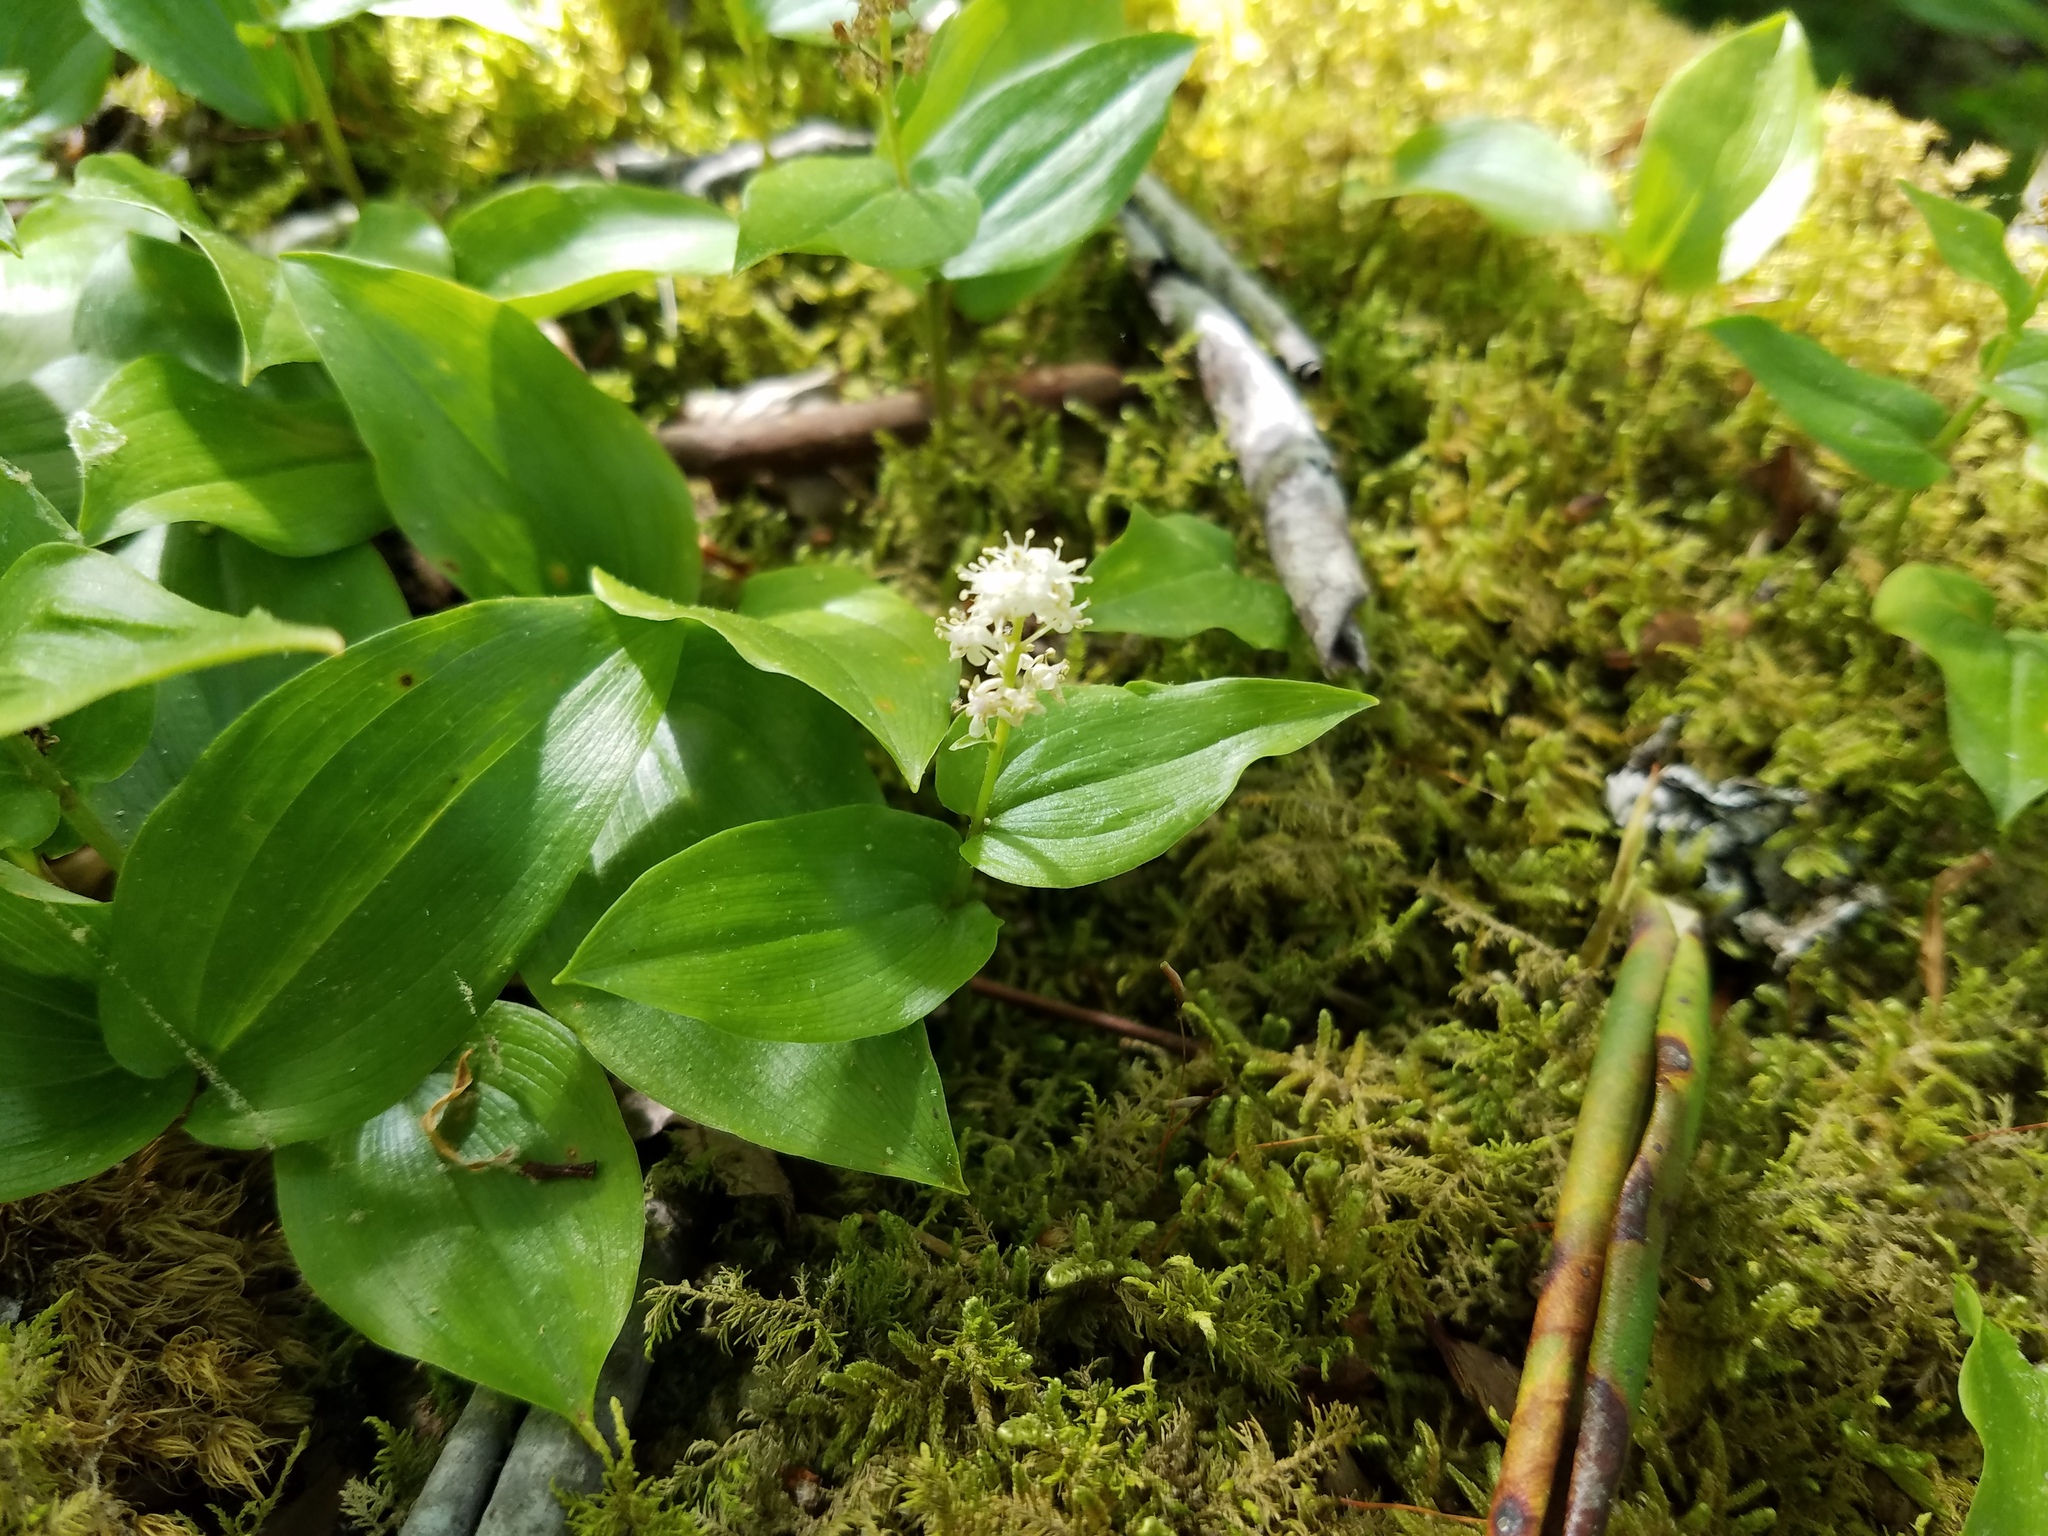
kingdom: Plantae
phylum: Tracheophyta
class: Liliopsida
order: Asparagales
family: Asparagaceae
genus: Maianthemum
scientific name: Maianthemum canadense
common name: False lily-of-the-valley
